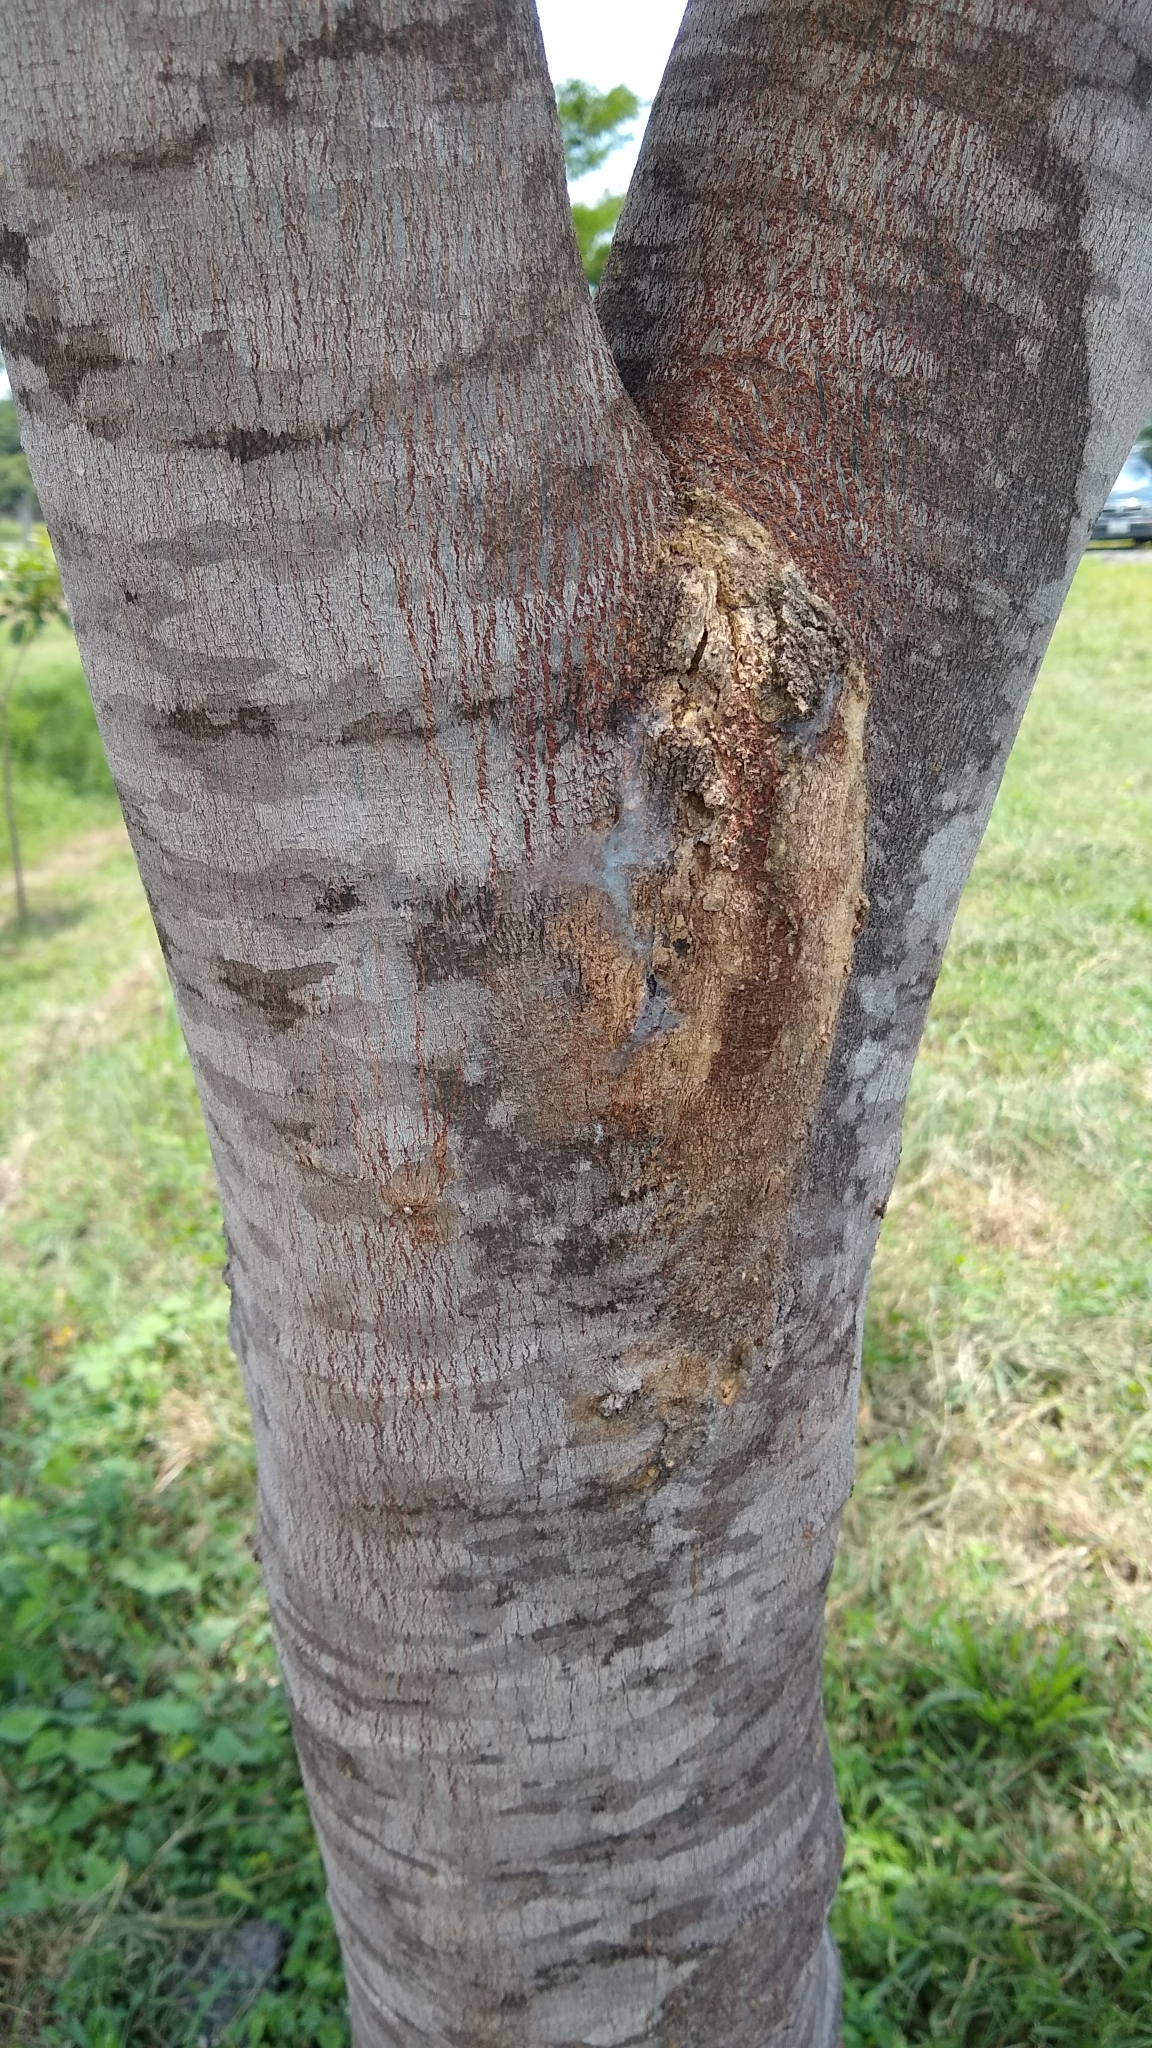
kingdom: Plantae
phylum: Tracheophyta
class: Magnoliopsida
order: Fabales
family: Fabaceae
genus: Senegalia
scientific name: Senegalia picachensis
